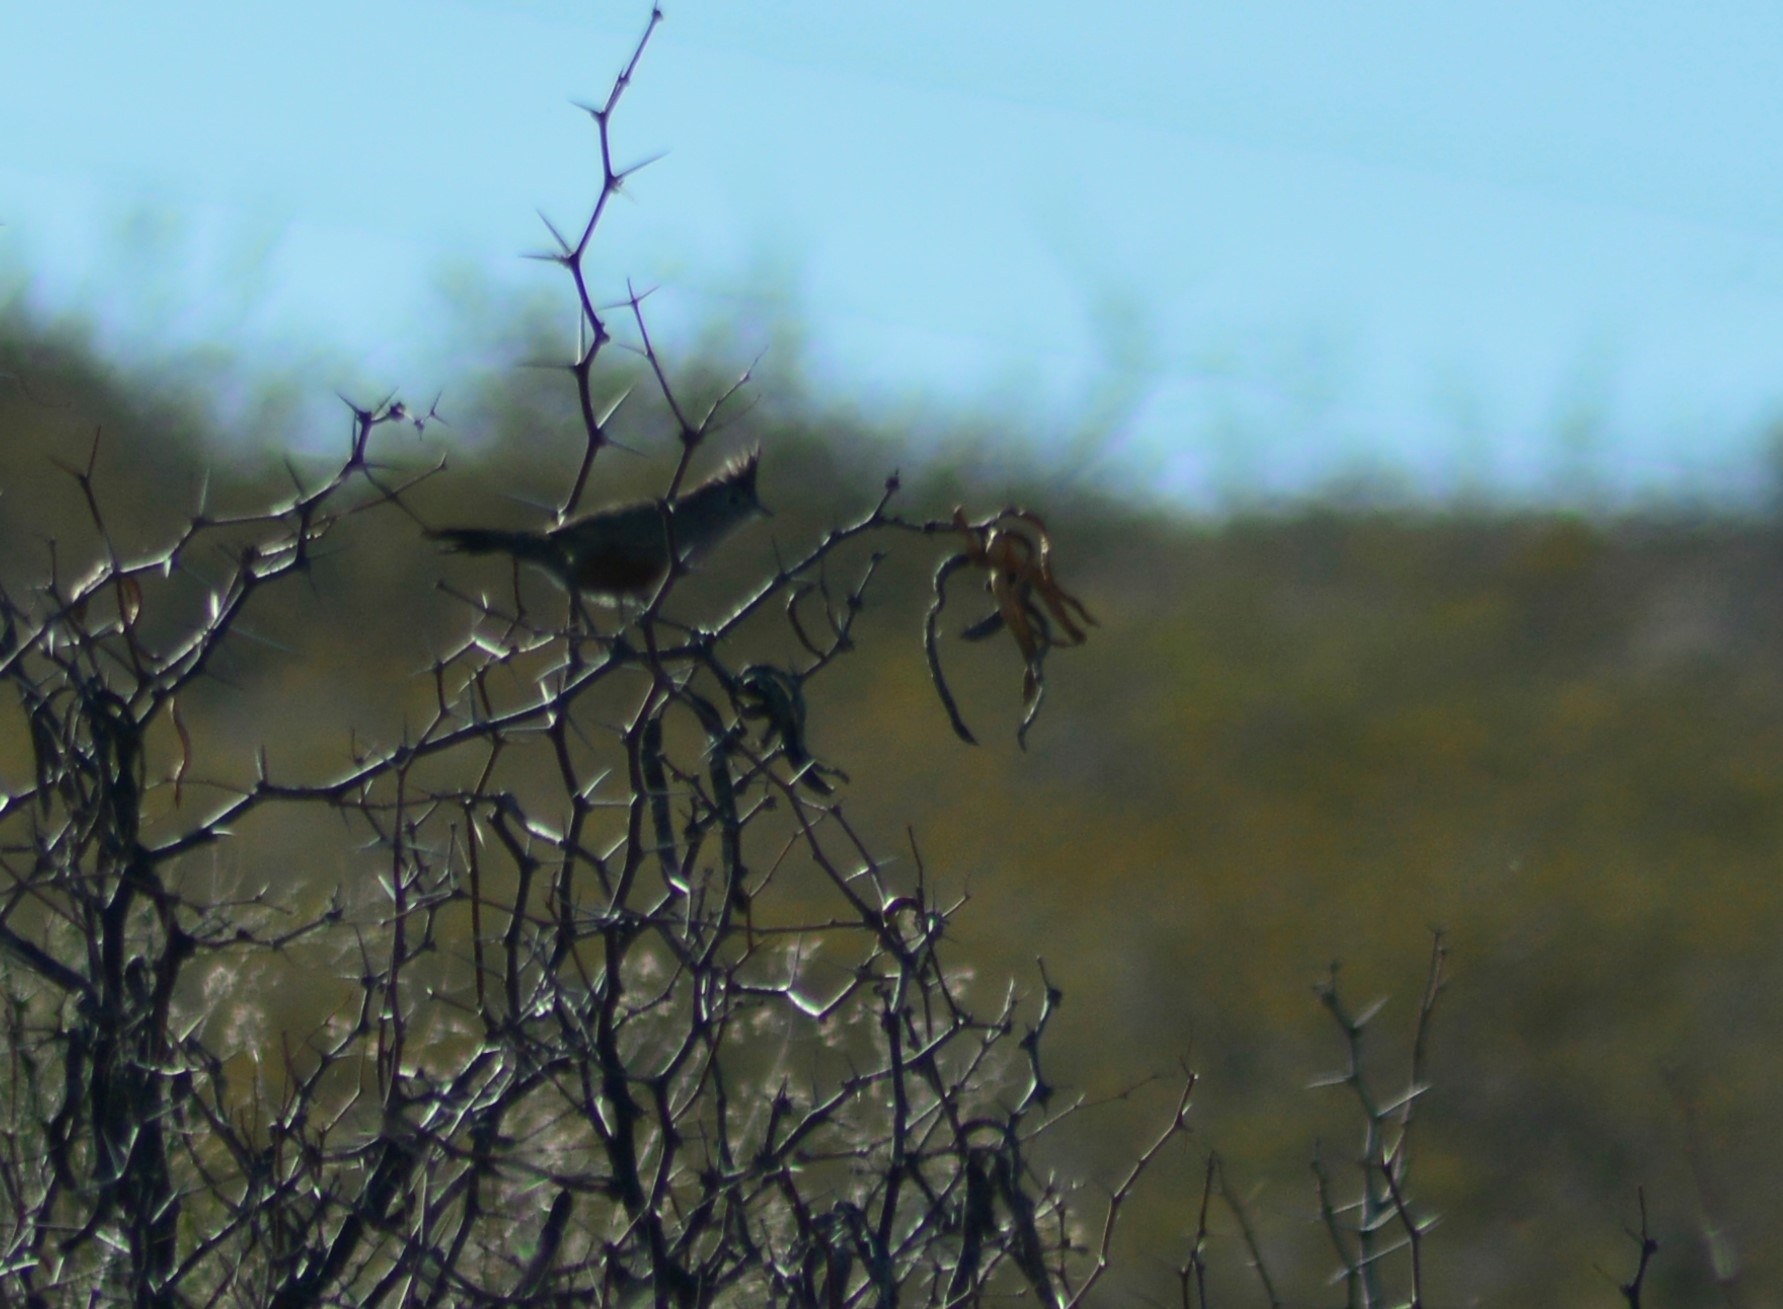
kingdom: Animalia
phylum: Chordata
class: Aves
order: Passeriformes
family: Rhinocryptidae
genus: Rhinocrypta
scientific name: Rhinocrypta lanceolata
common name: Crested gallito
